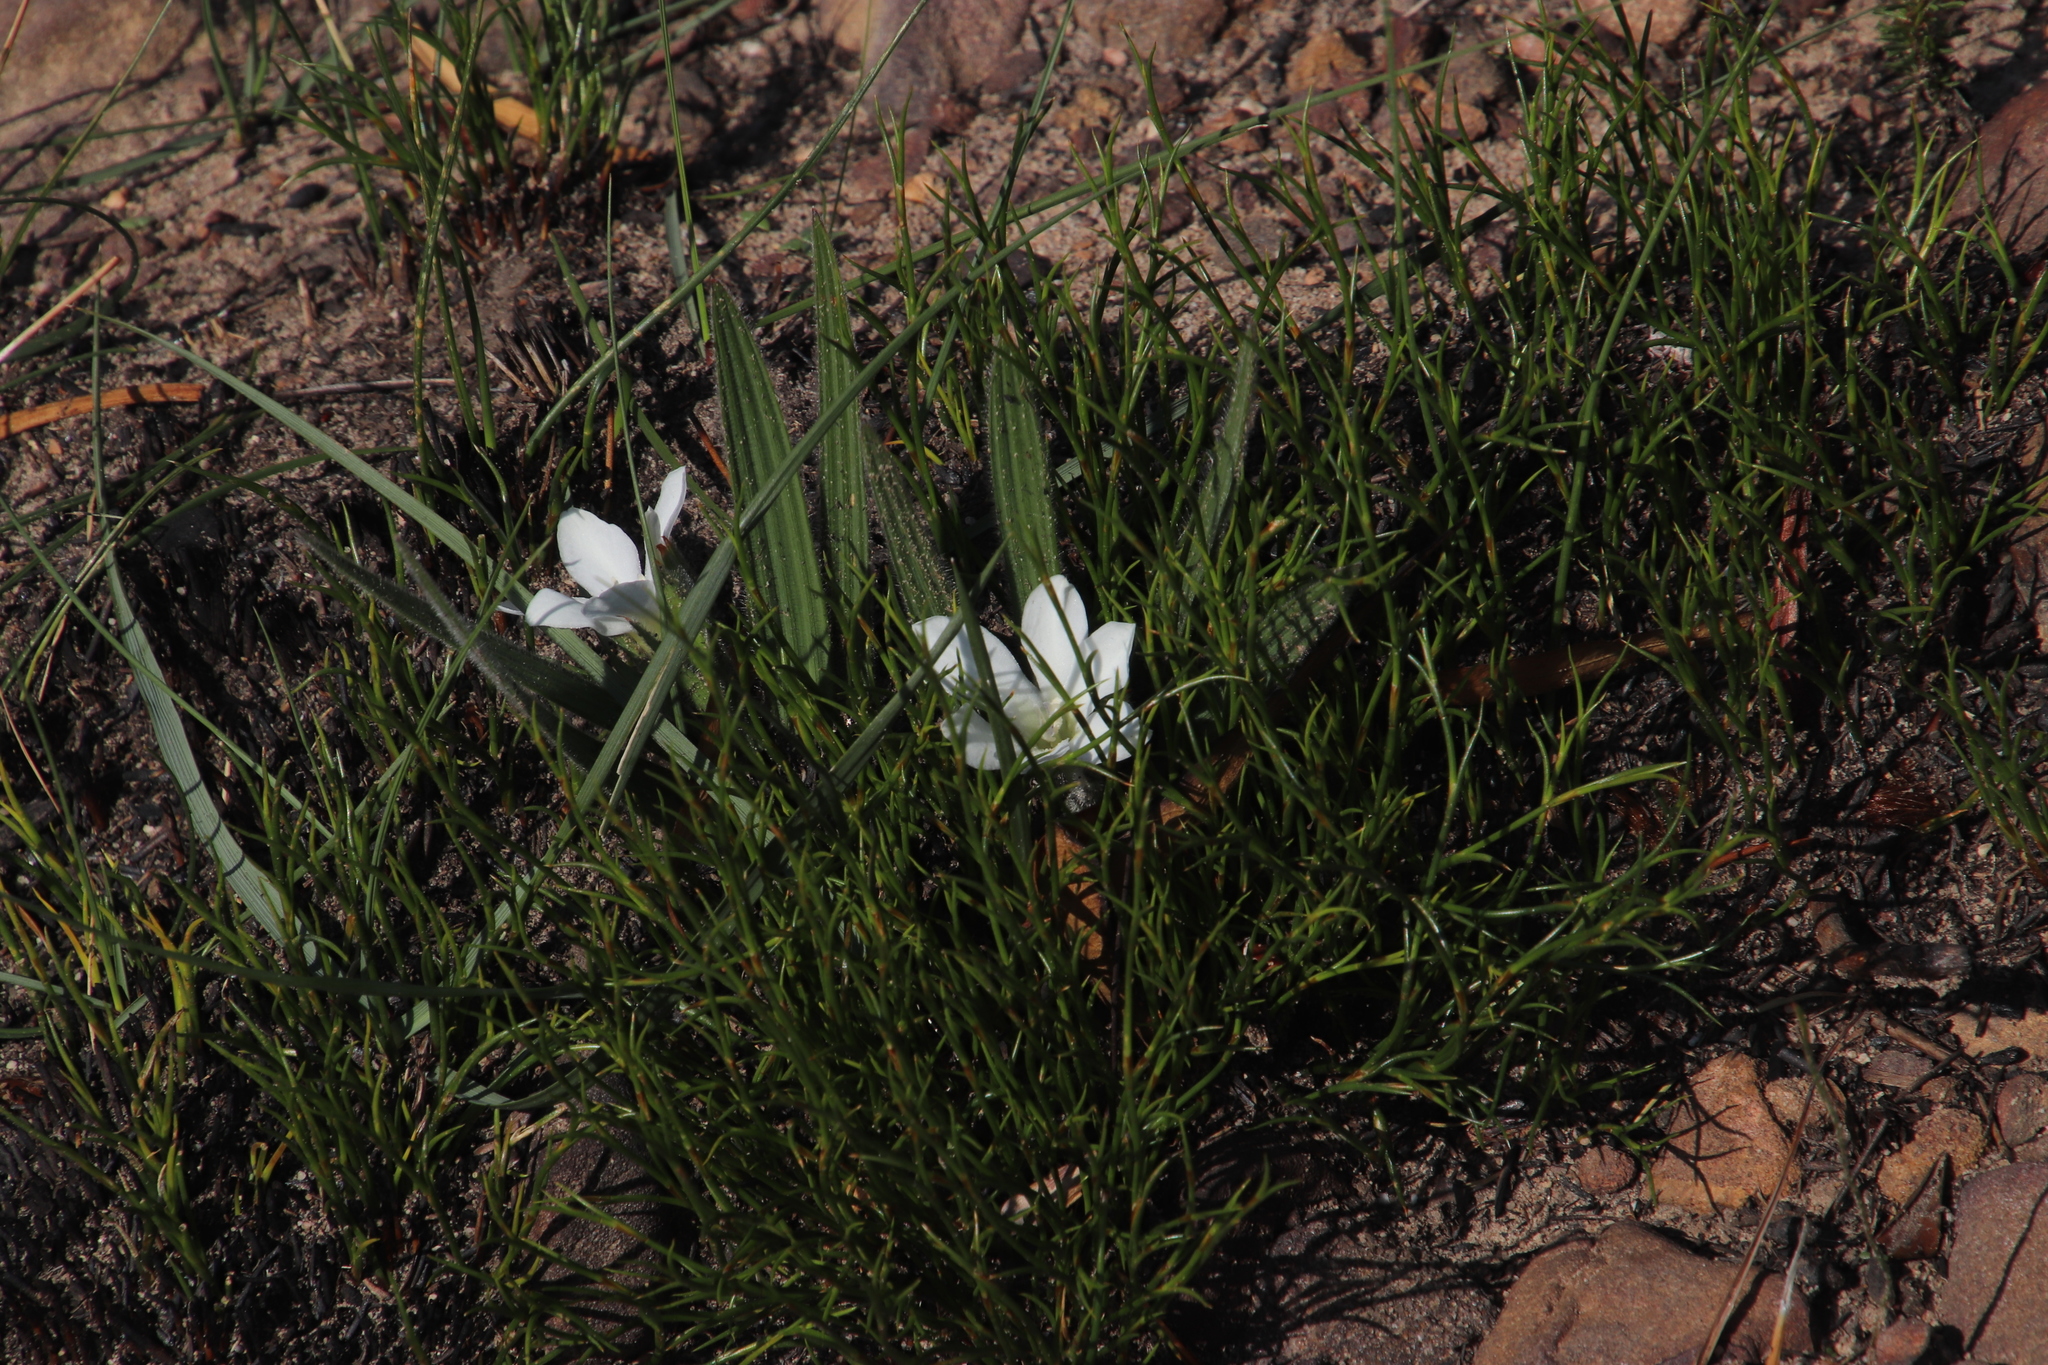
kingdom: Plantae
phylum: Tracheophyta
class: Liliopsida
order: Asparagales
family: Iridaceae
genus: Babiana
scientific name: Babiana villosula
